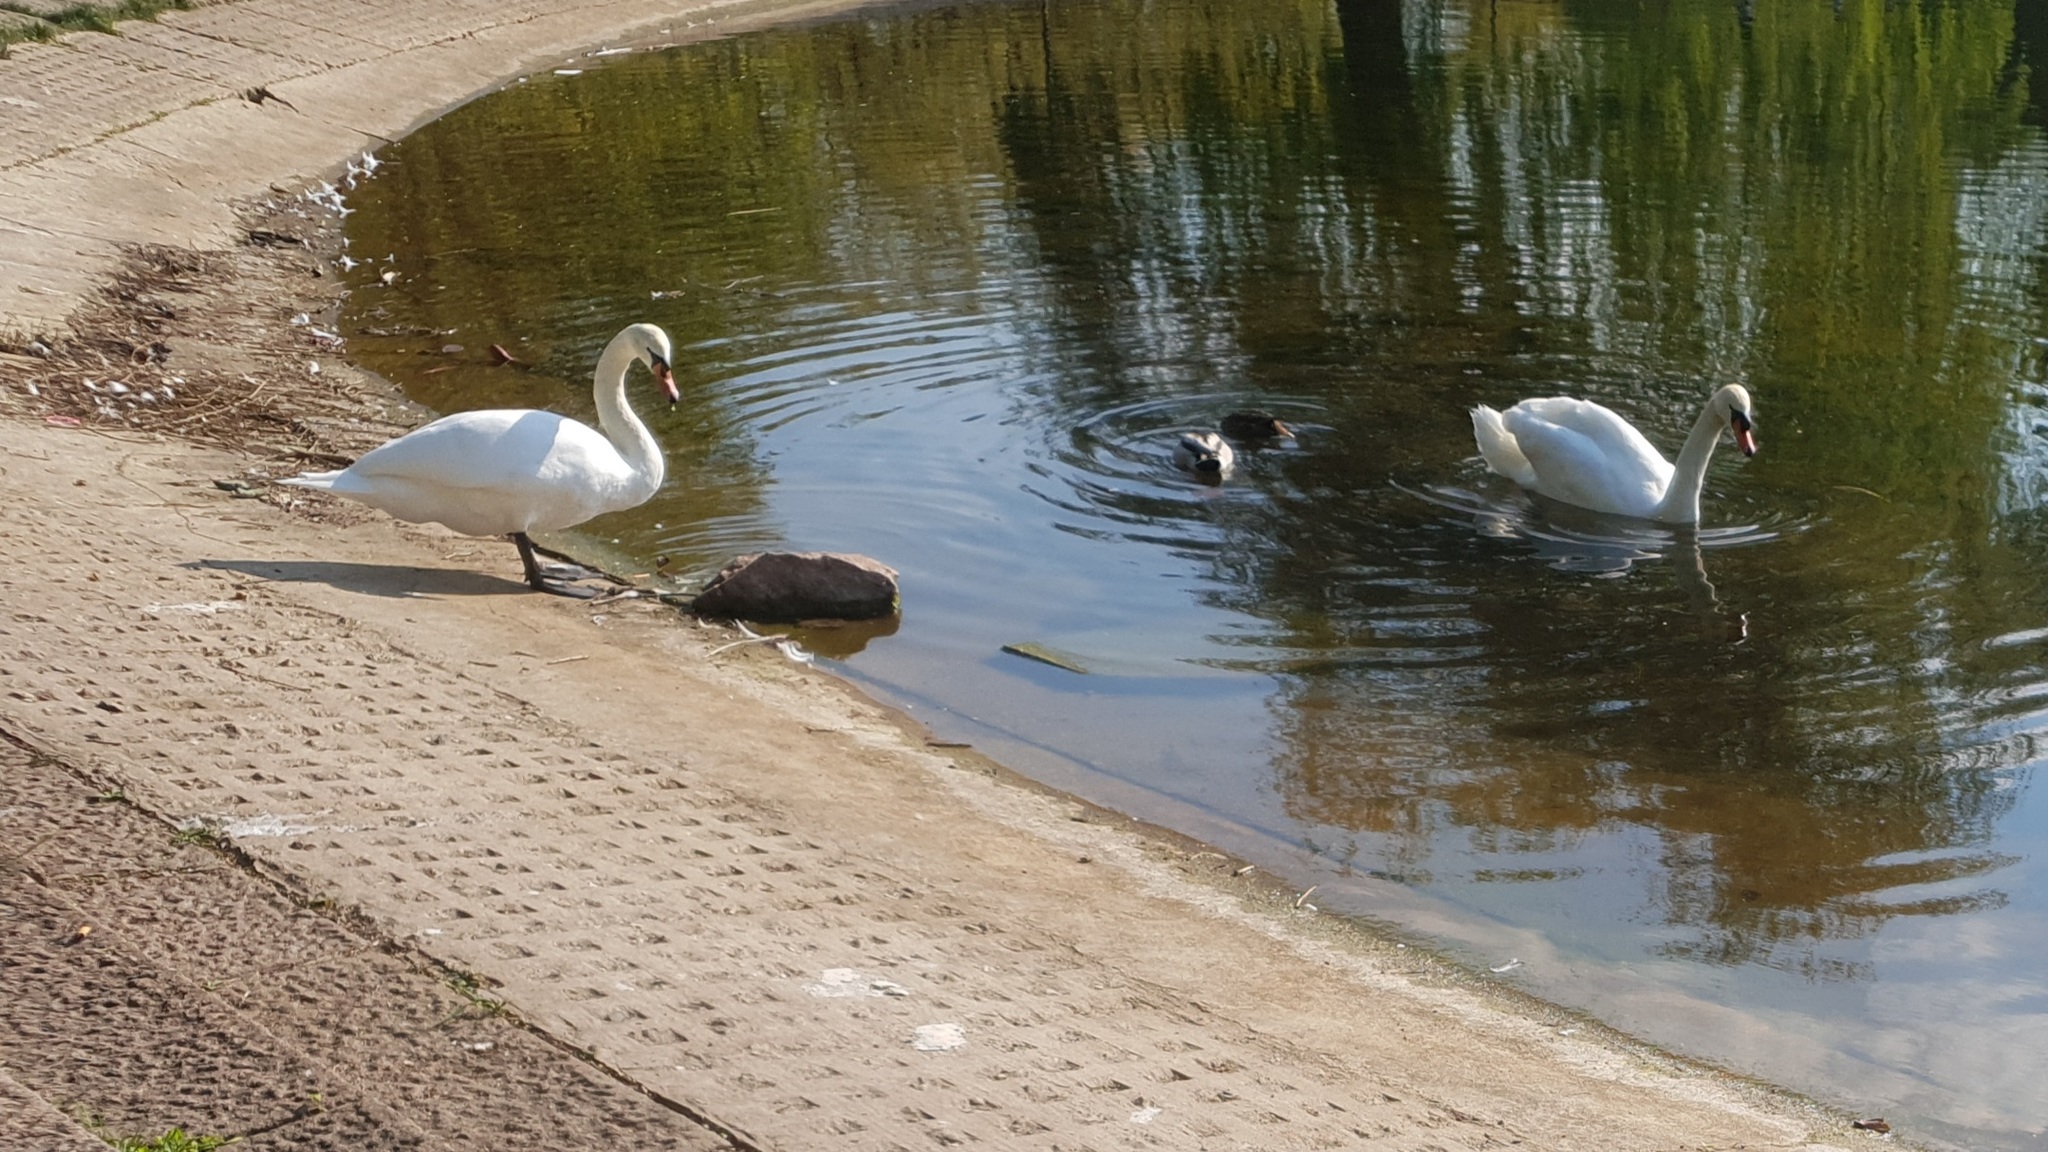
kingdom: Animalia
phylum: Chordata
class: Aves
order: Anseriformes
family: Anatidae
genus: Cygnus
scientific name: Cygnus olor
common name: Mute swan
